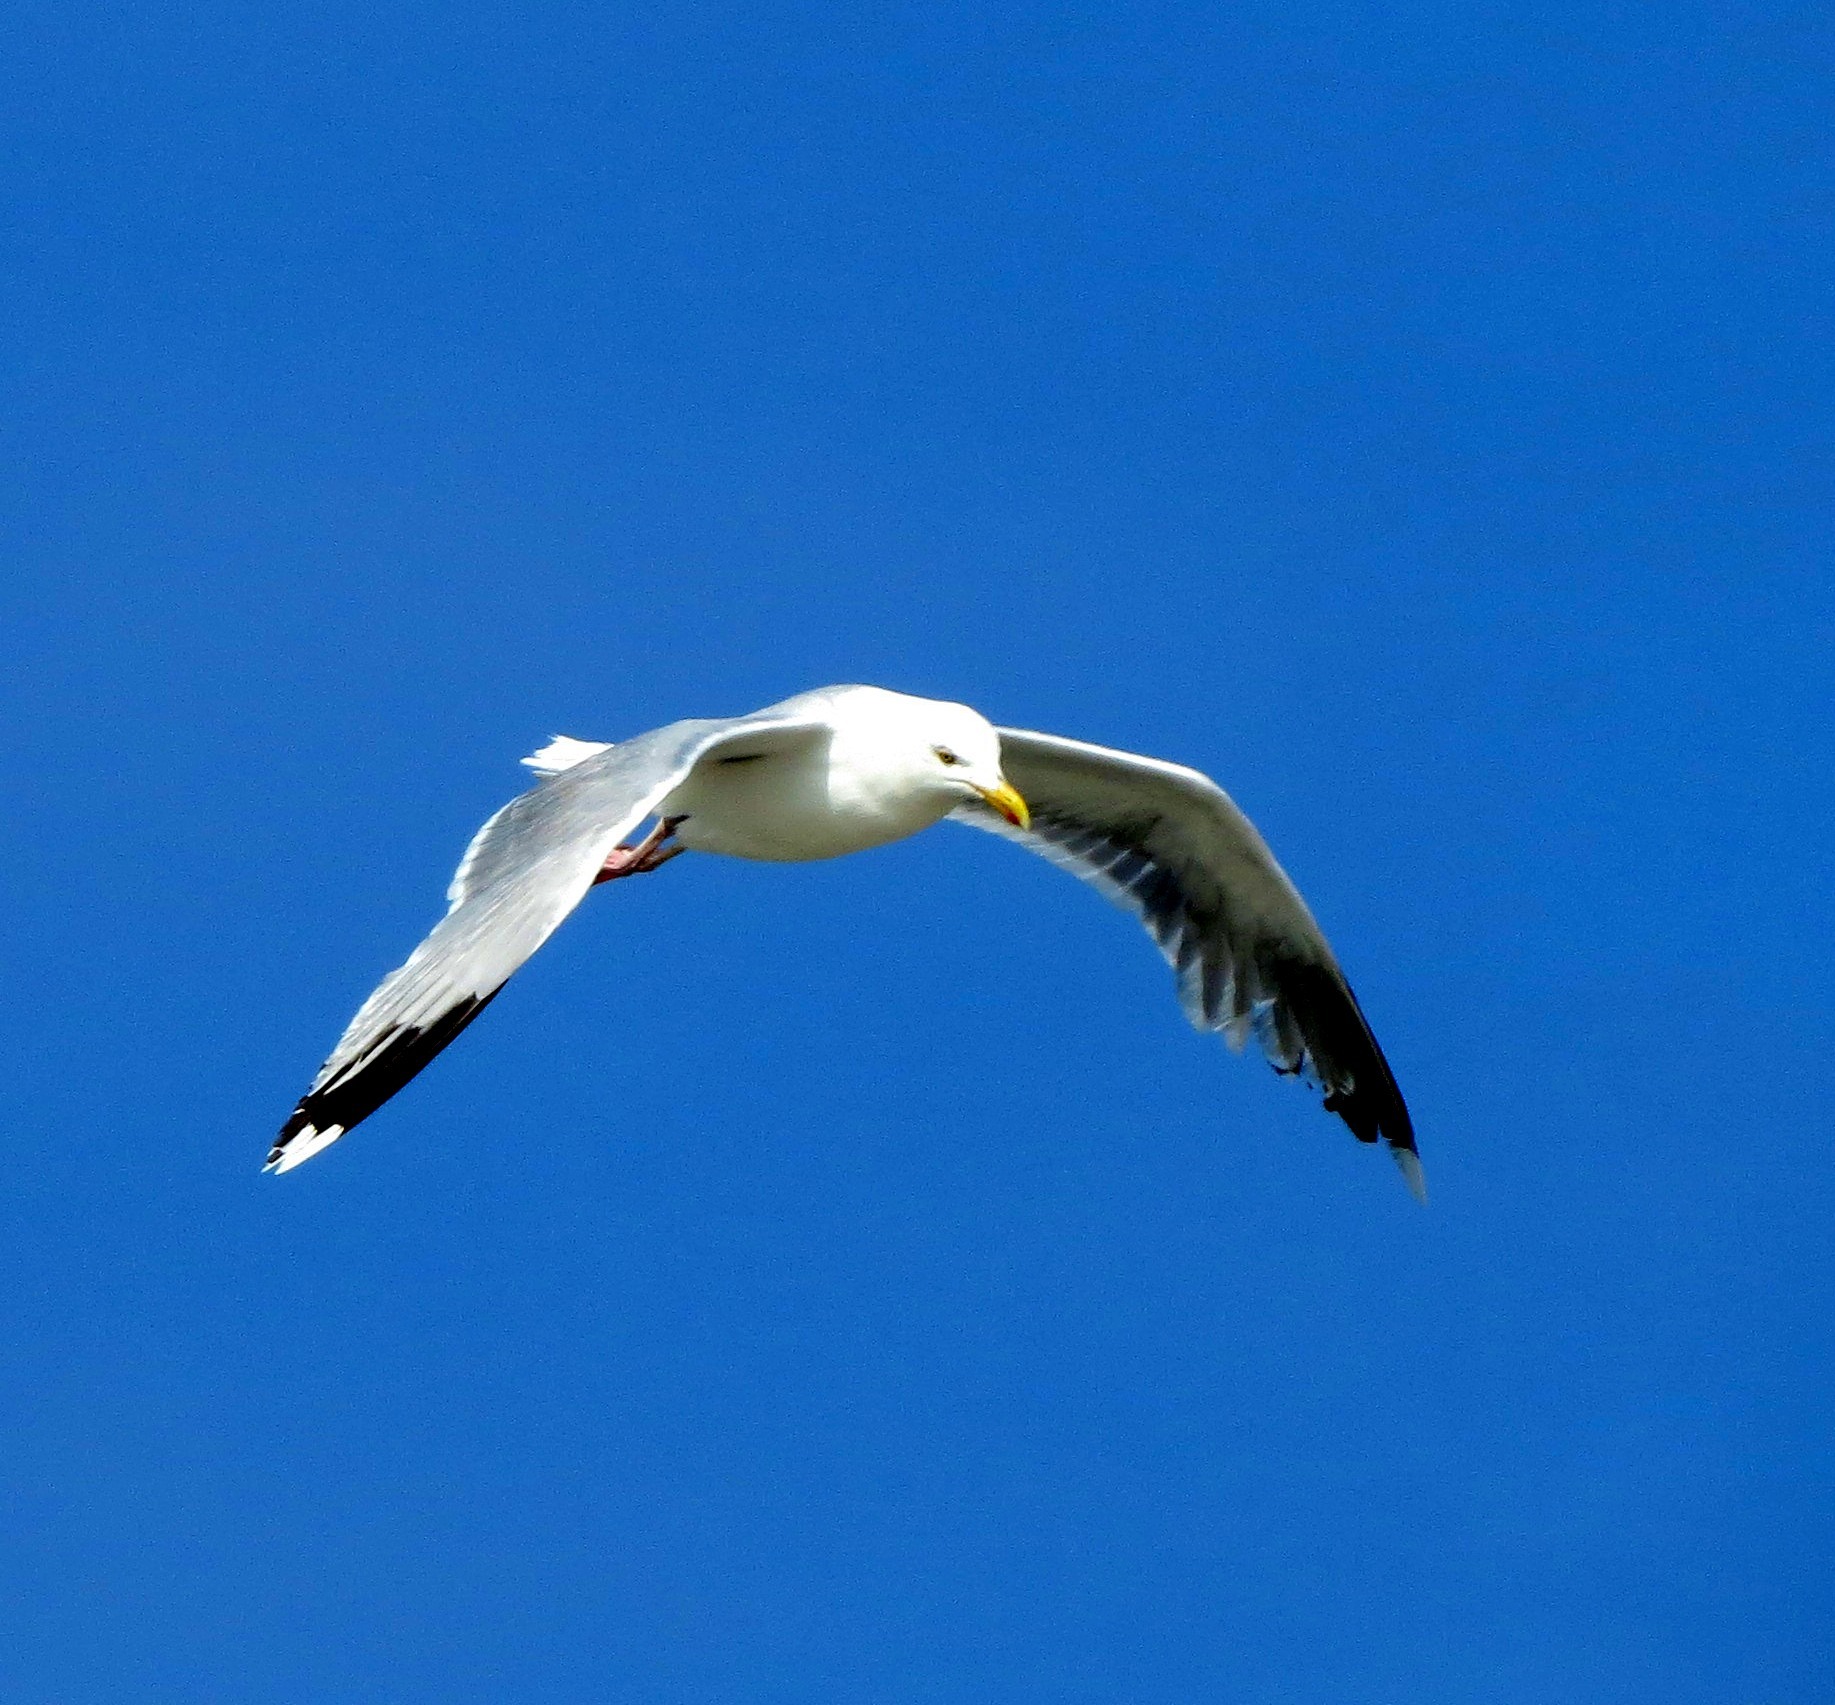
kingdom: Animalia
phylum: Chordata
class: Aves
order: Charadriiformes
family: Laridae
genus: Larus
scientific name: Larus argentatus
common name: Herring gull
